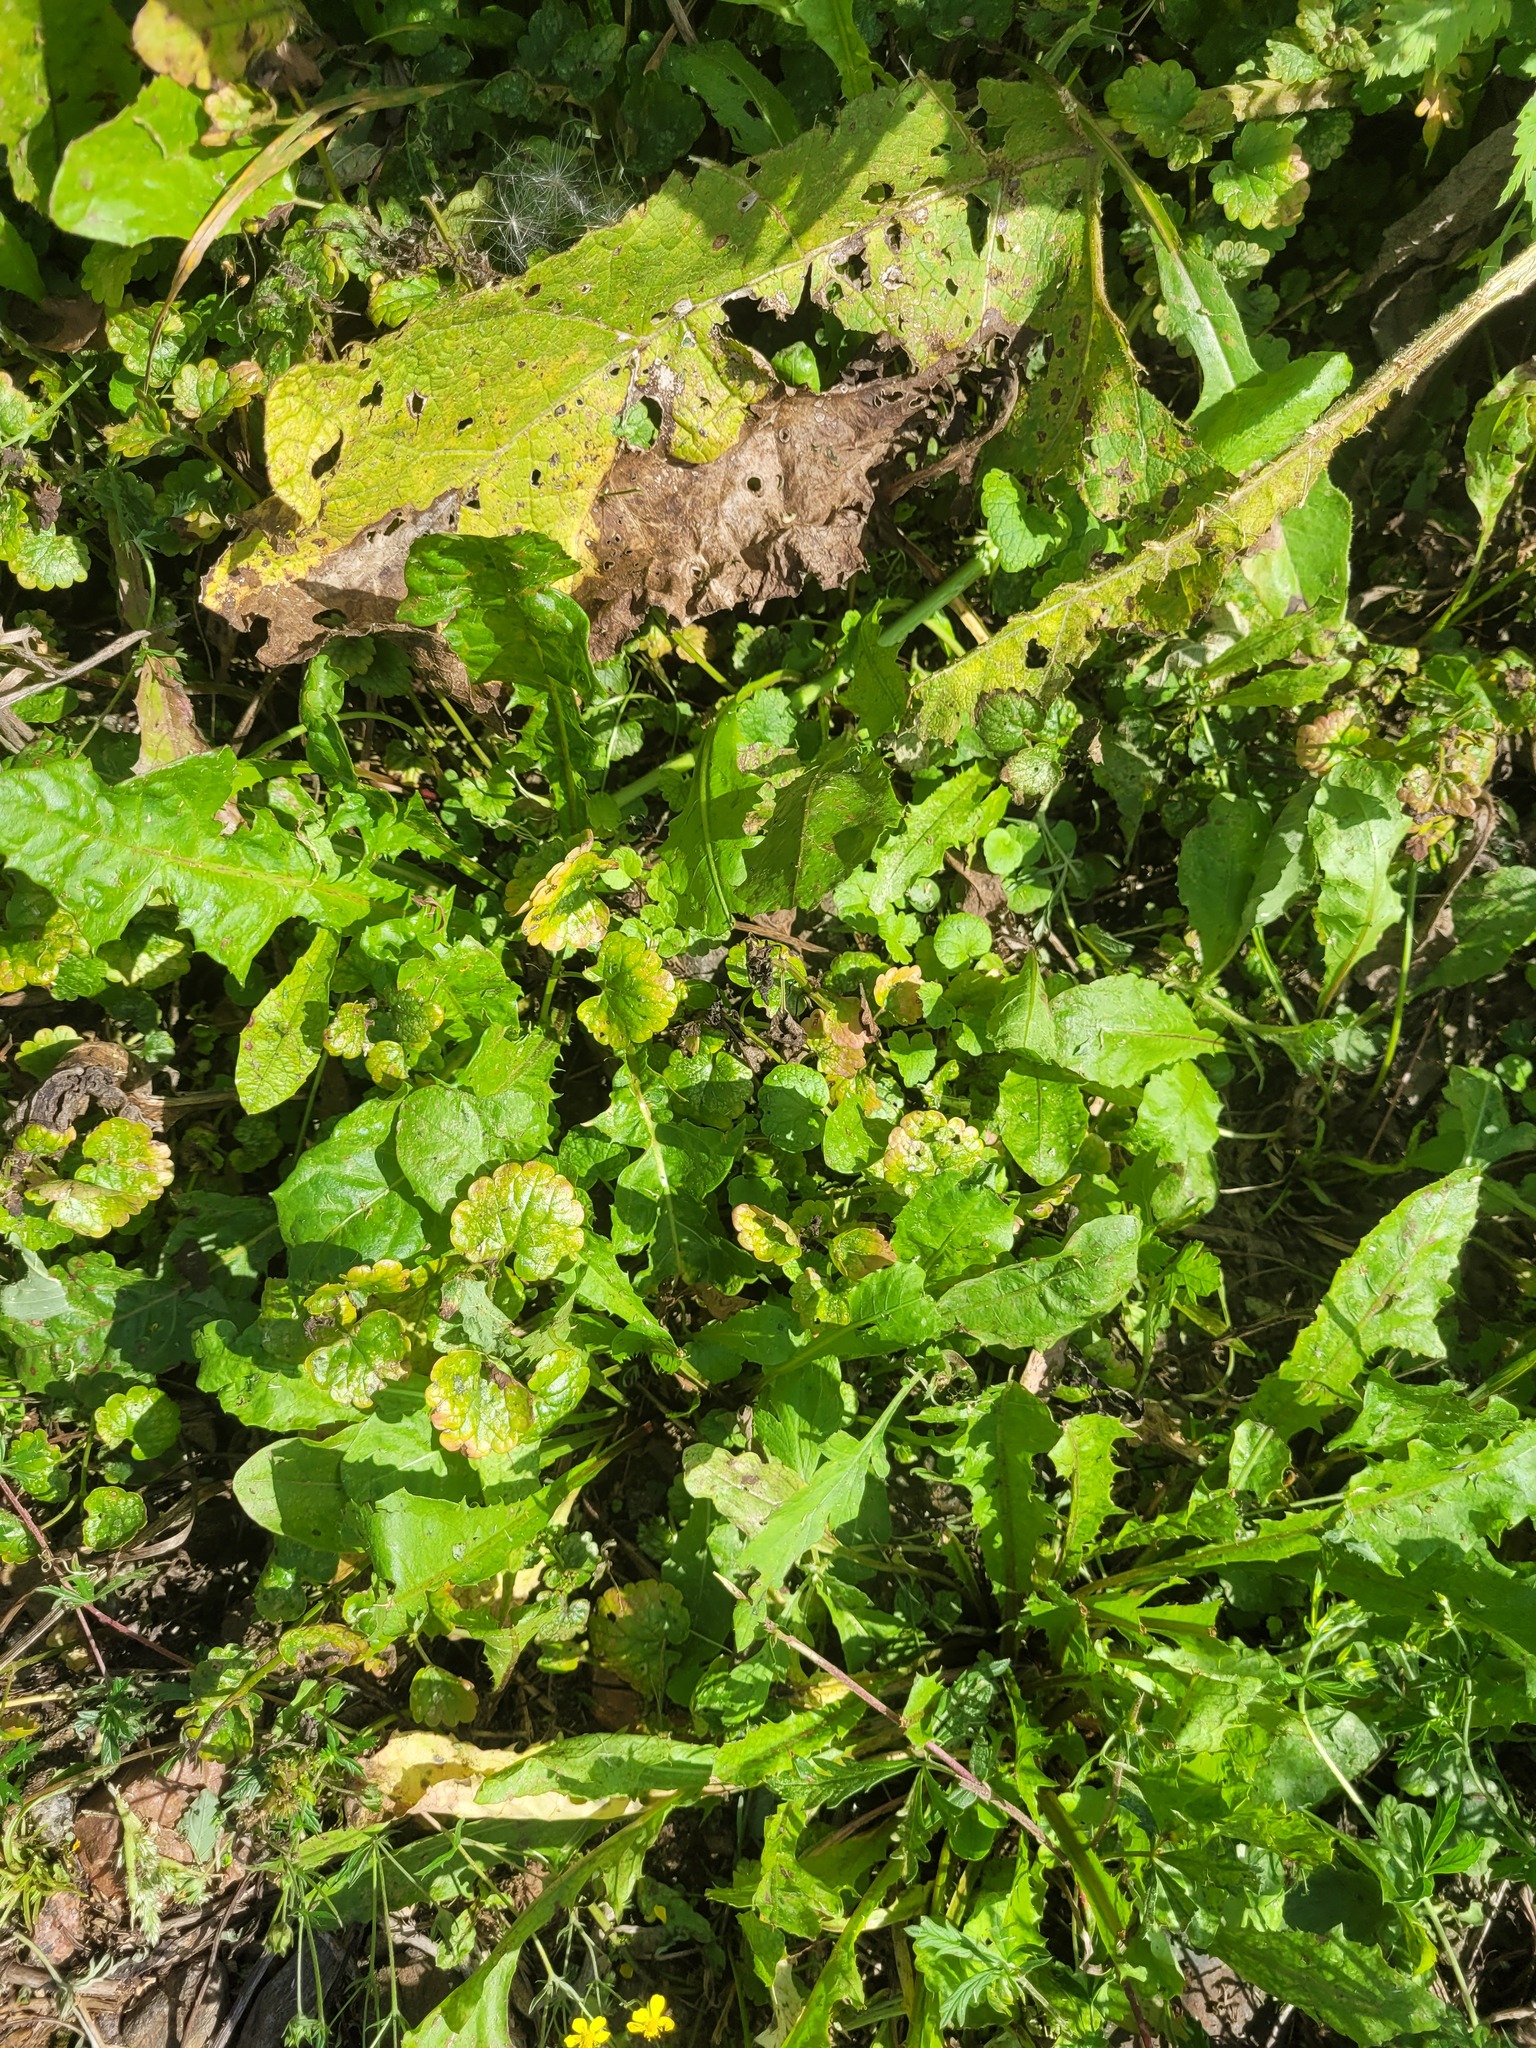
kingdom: Plantae
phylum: Tracheophyta
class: Magnoliopsida
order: Lamiales
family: Lamiaceae
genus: Glechoma
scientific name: Glechoma hederacea
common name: Ground ivy
